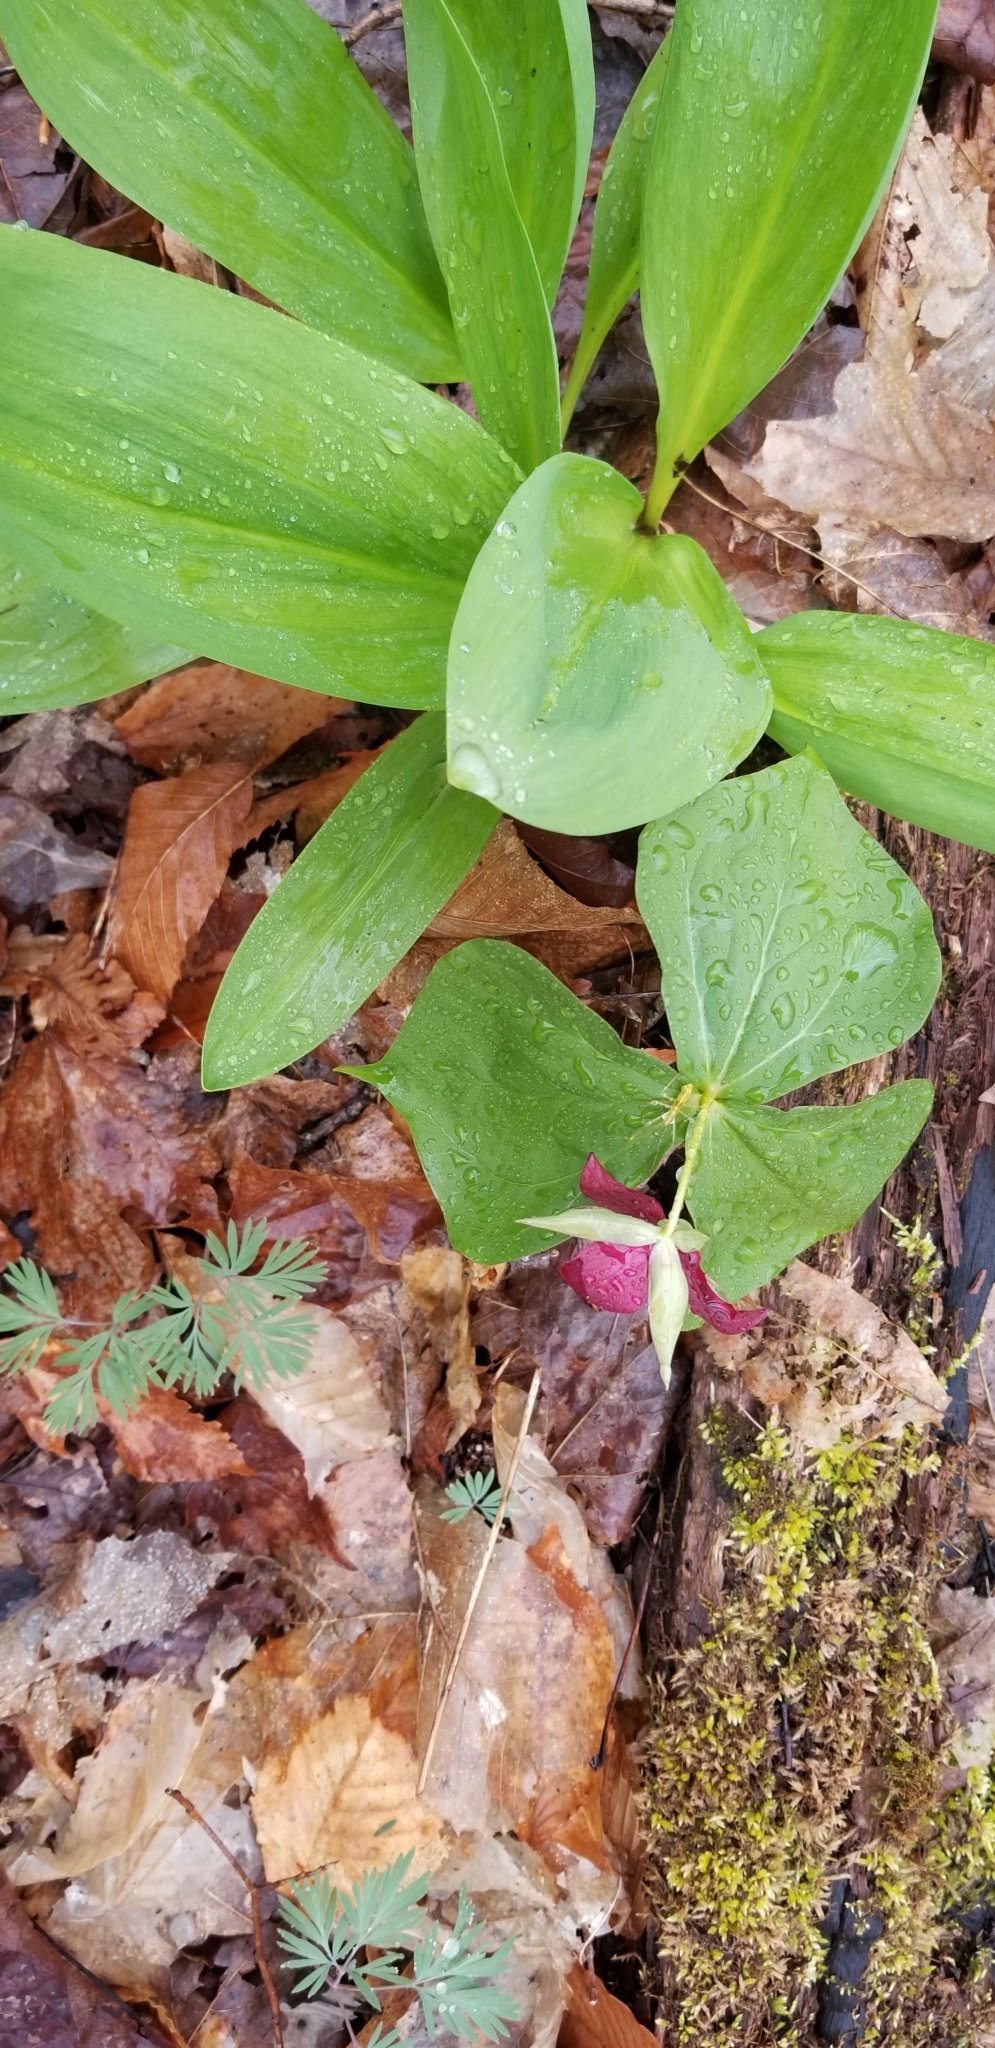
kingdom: Plantae
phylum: Tracheophyta
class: Liliopsida
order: Liliales
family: Melanthiaceae
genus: Trillium
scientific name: Trillium erectum
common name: Purple trillium
